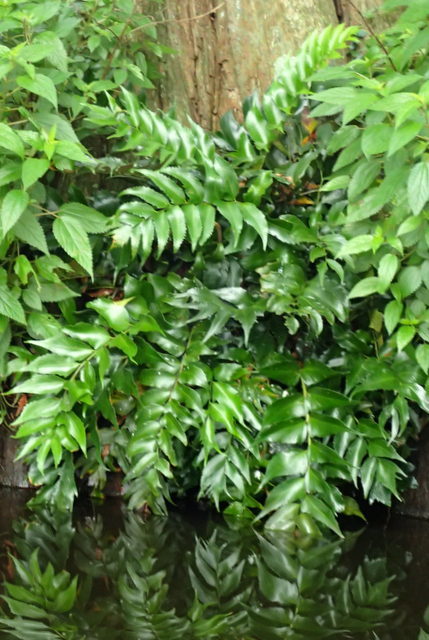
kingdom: Plantae
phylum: Tracheophyta
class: Polypodiopsida
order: Polypodiales
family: Dryopteridaceae
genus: Cyrtomium
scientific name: Cyrtomium falcatum
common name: House holly-fern
